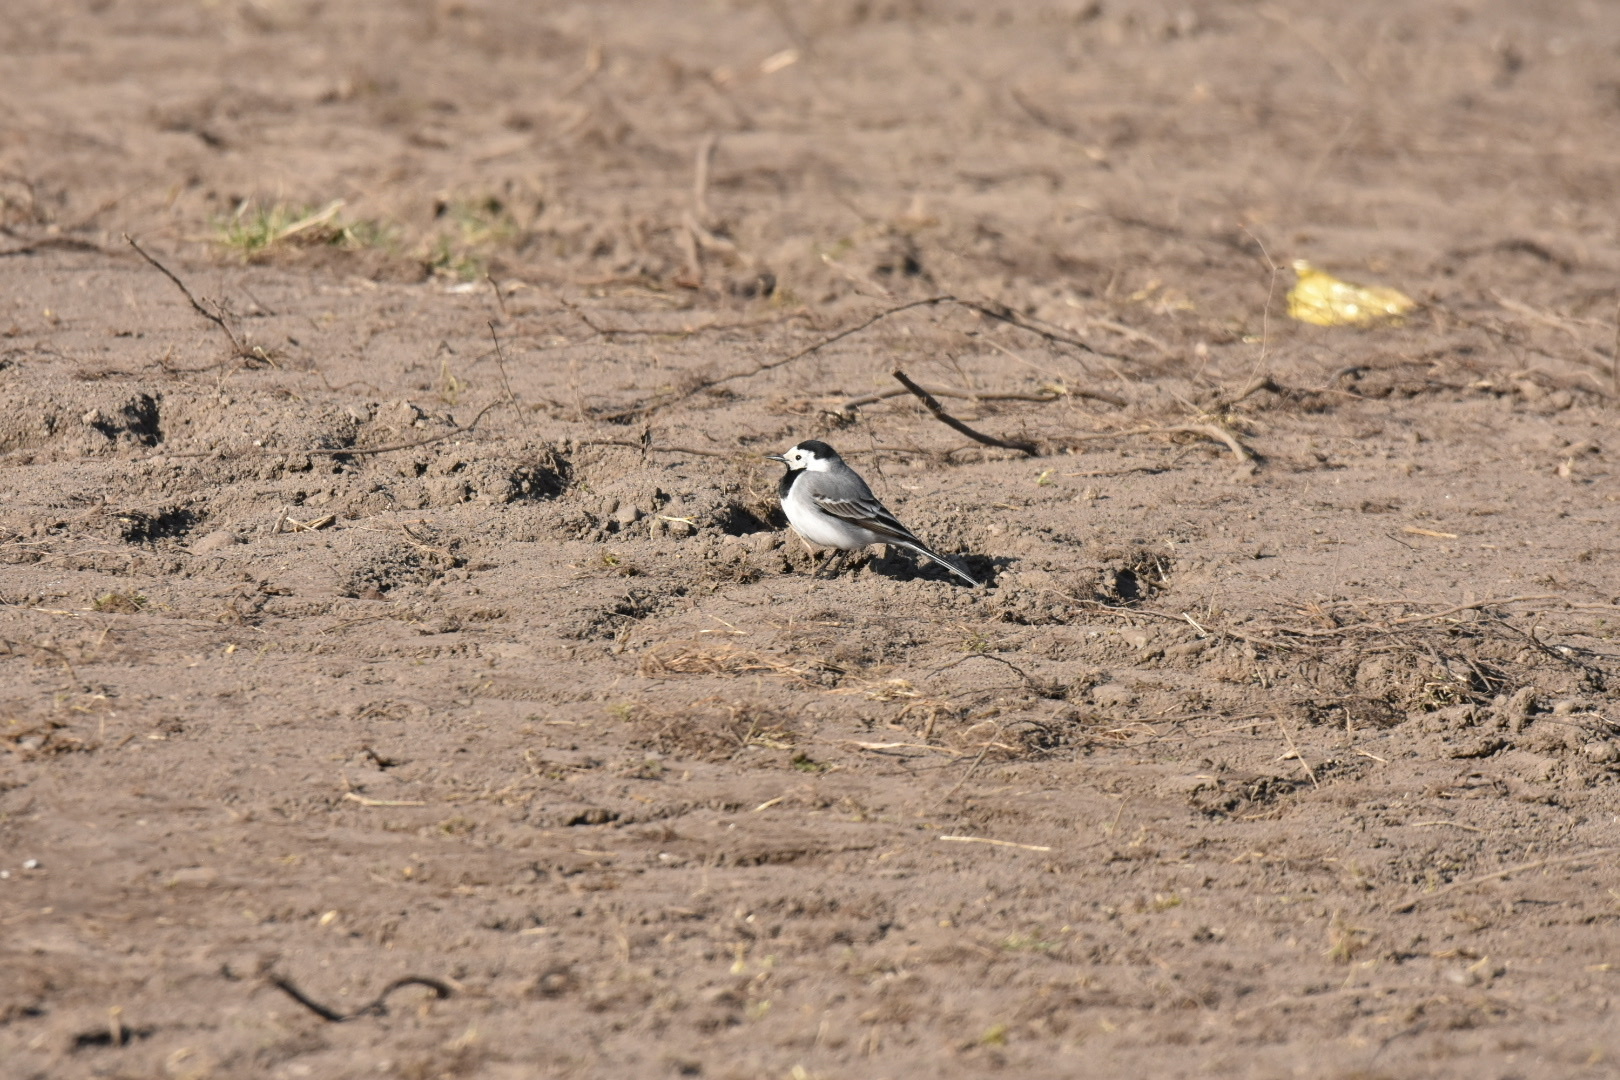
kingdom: Animalia
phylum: Chordata
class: Aves
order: Passeriformes
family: Motacillidae
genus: Motacilla
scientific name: Motacilla alba
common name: White wagtail
